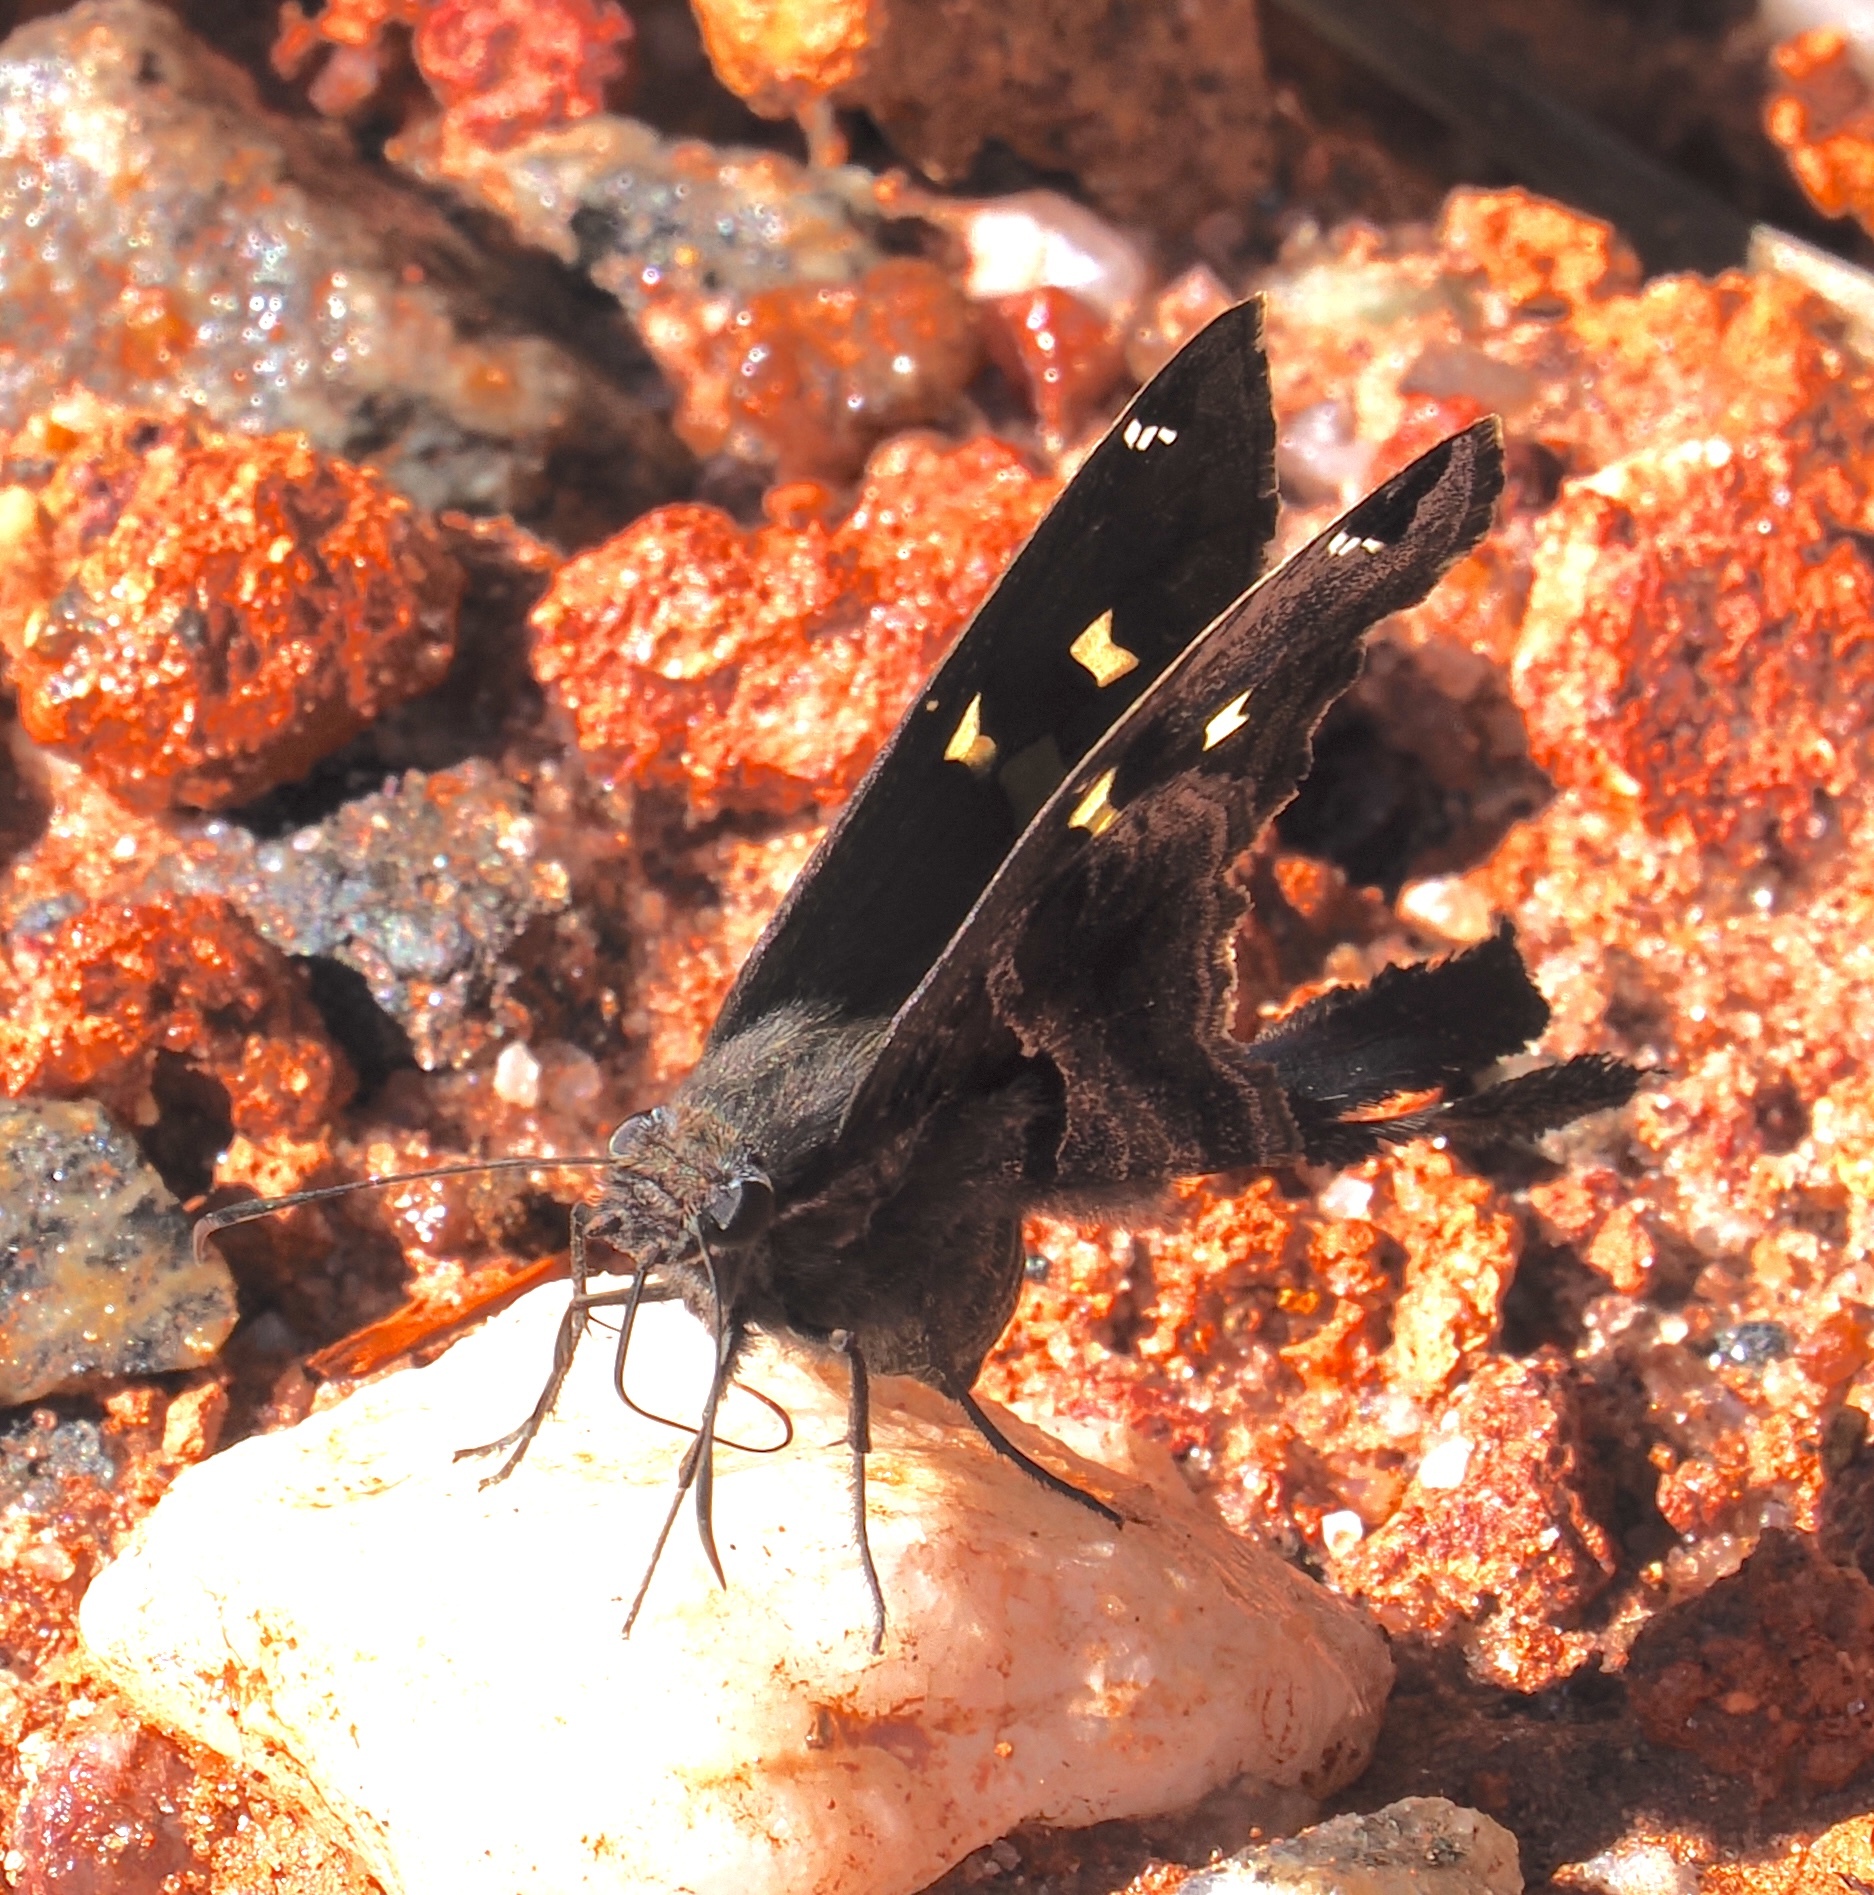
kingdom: Animalia
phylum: Arthropoda
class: Insecta
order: Lepidoptera
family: Hesperiidae
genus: Chioides
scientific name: Chioides catillus
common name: Silverbanded skipper
